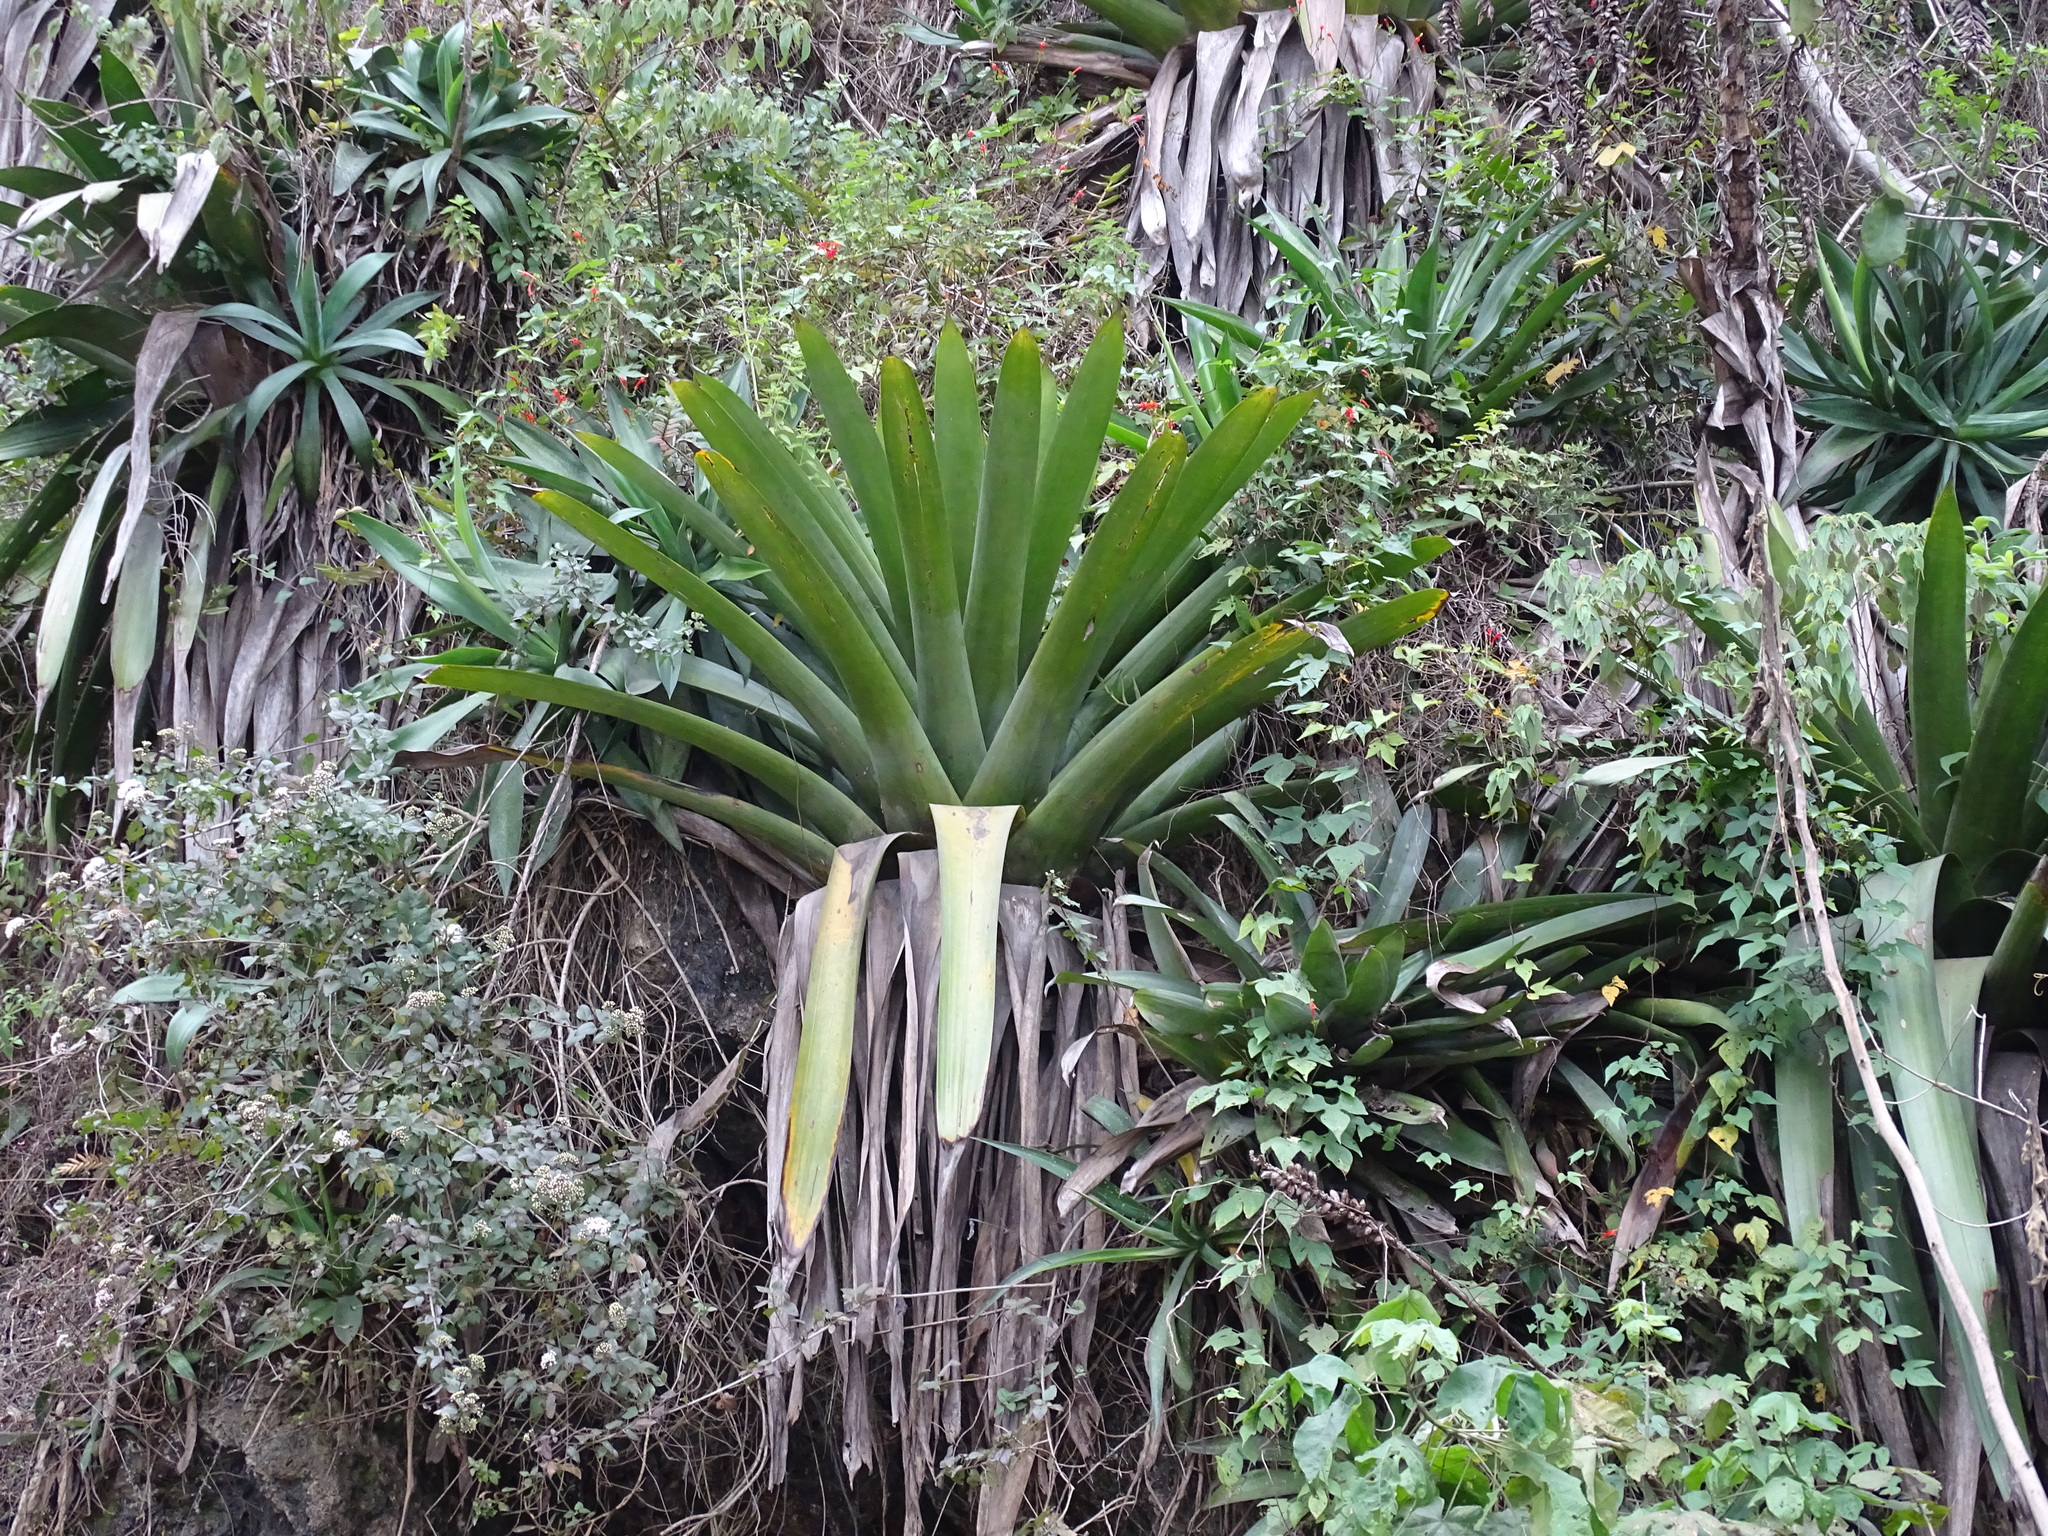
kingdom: Plantae
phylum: Tracheophyta
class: Liliopsida
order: Poales
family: Bromeliaceae
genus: Pseudalcantarea
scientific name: Pseudalcantarea grandis
